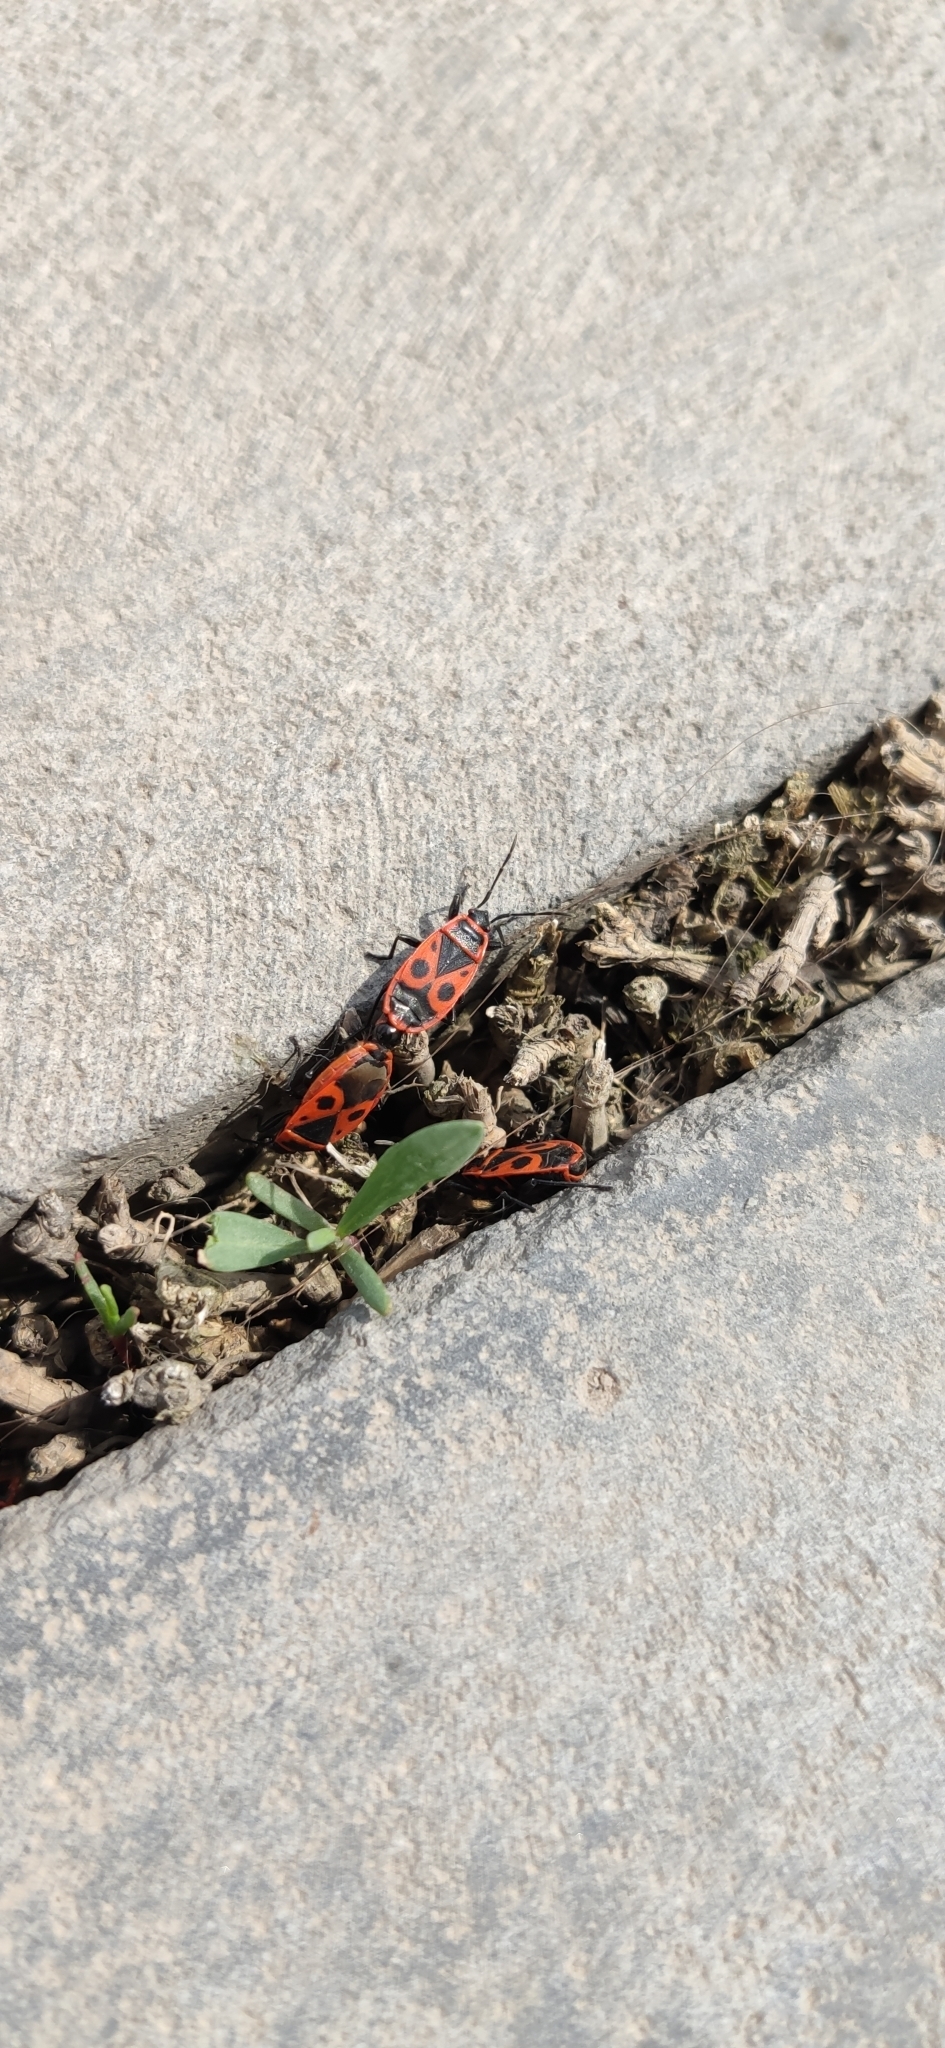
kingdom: Animalia
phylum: Arthropoda
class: Insecta
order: Hemiptera
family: Pyrrhocoridae
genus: Pyrrhocoris
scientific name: Pyrrhocoris apterus
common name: Firebug
